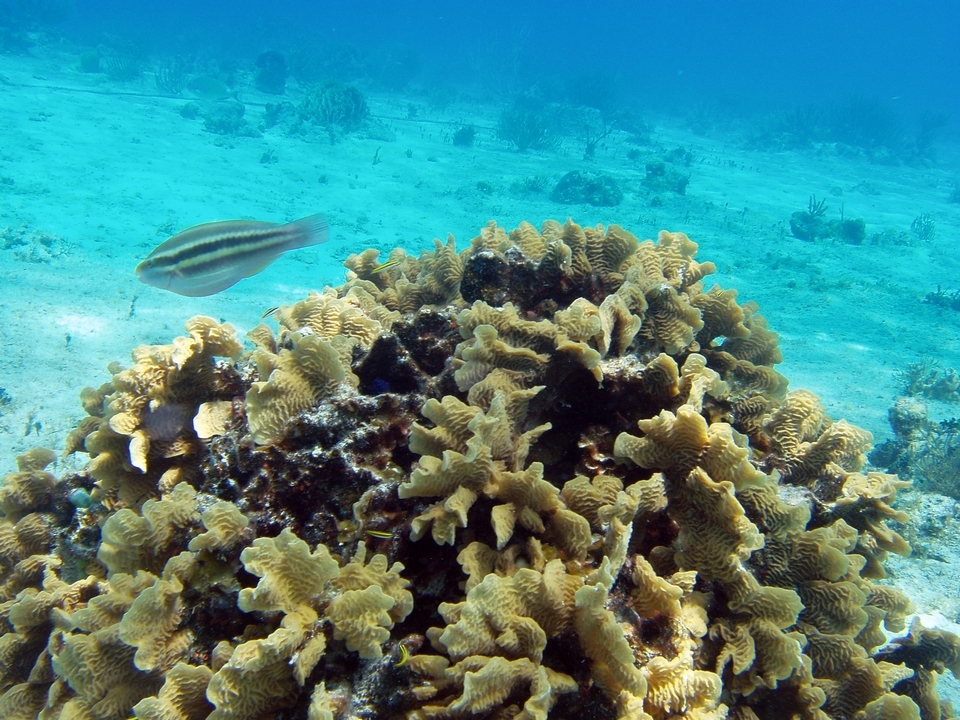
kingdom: Animalia
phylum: Cnidaria
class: Anthozoa
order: Scleractinia
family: Agariciidae
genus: Agaricia
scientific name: Agaricia tenuifolia
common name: Thin leaf lettuce coral
